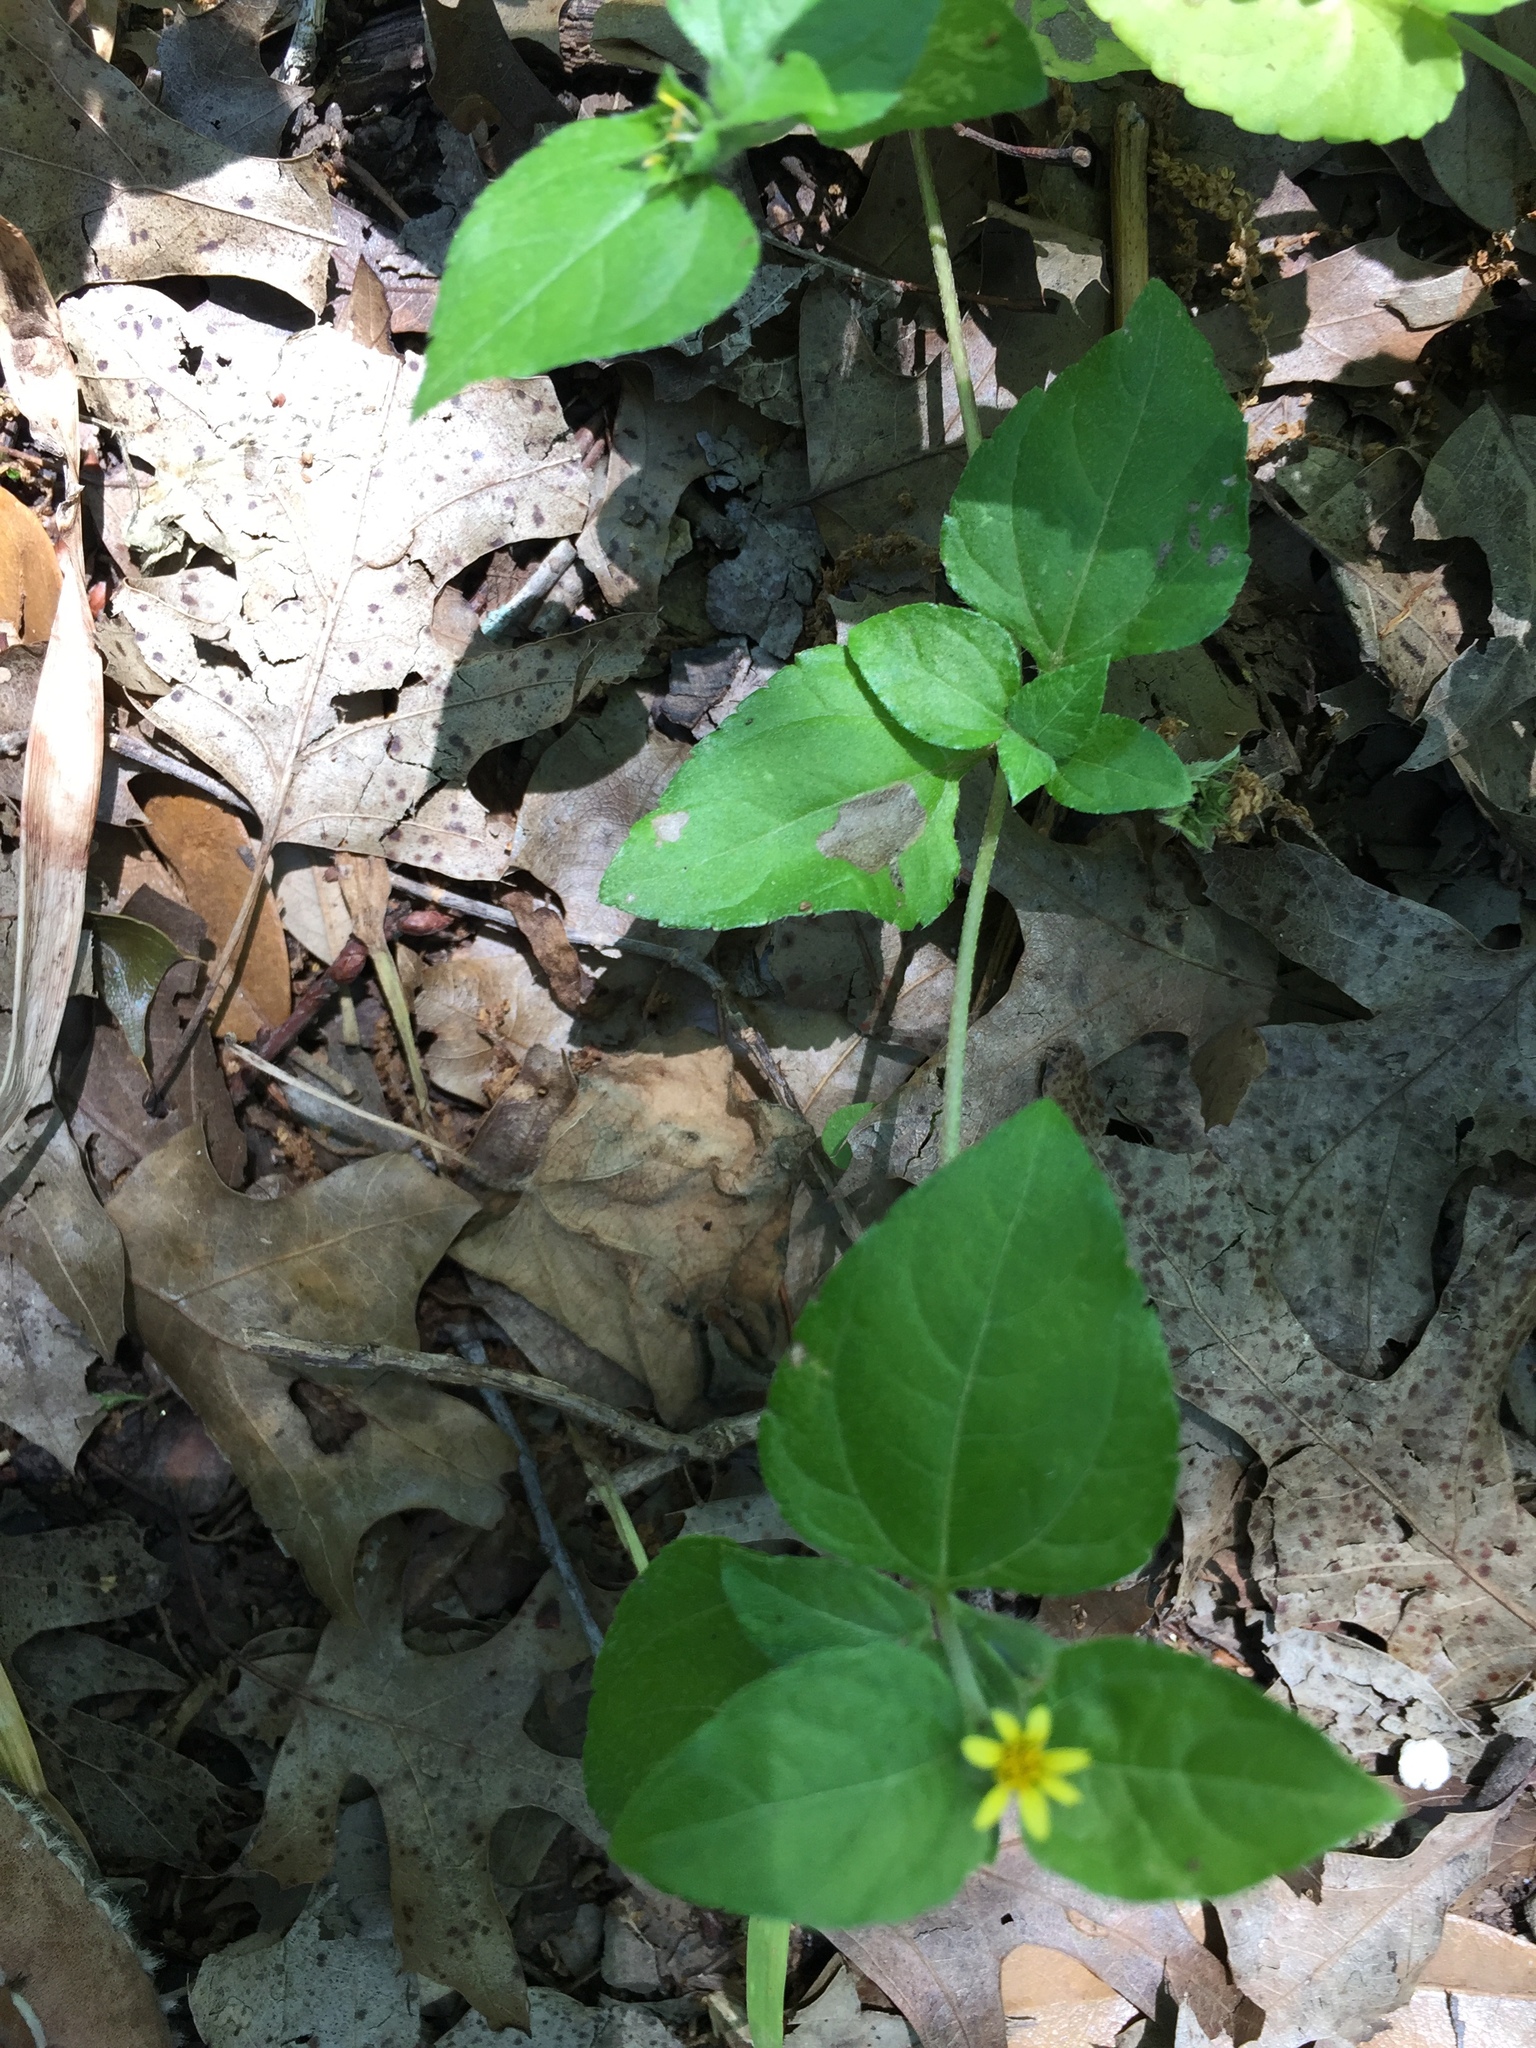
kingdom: Plantae
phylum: Tracheophyta
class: Magnoliopsida
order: Asterales
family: Asteraceae
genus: Calyptocarpus
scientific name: Calyptocarpus vialis
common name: Straggler daisy
